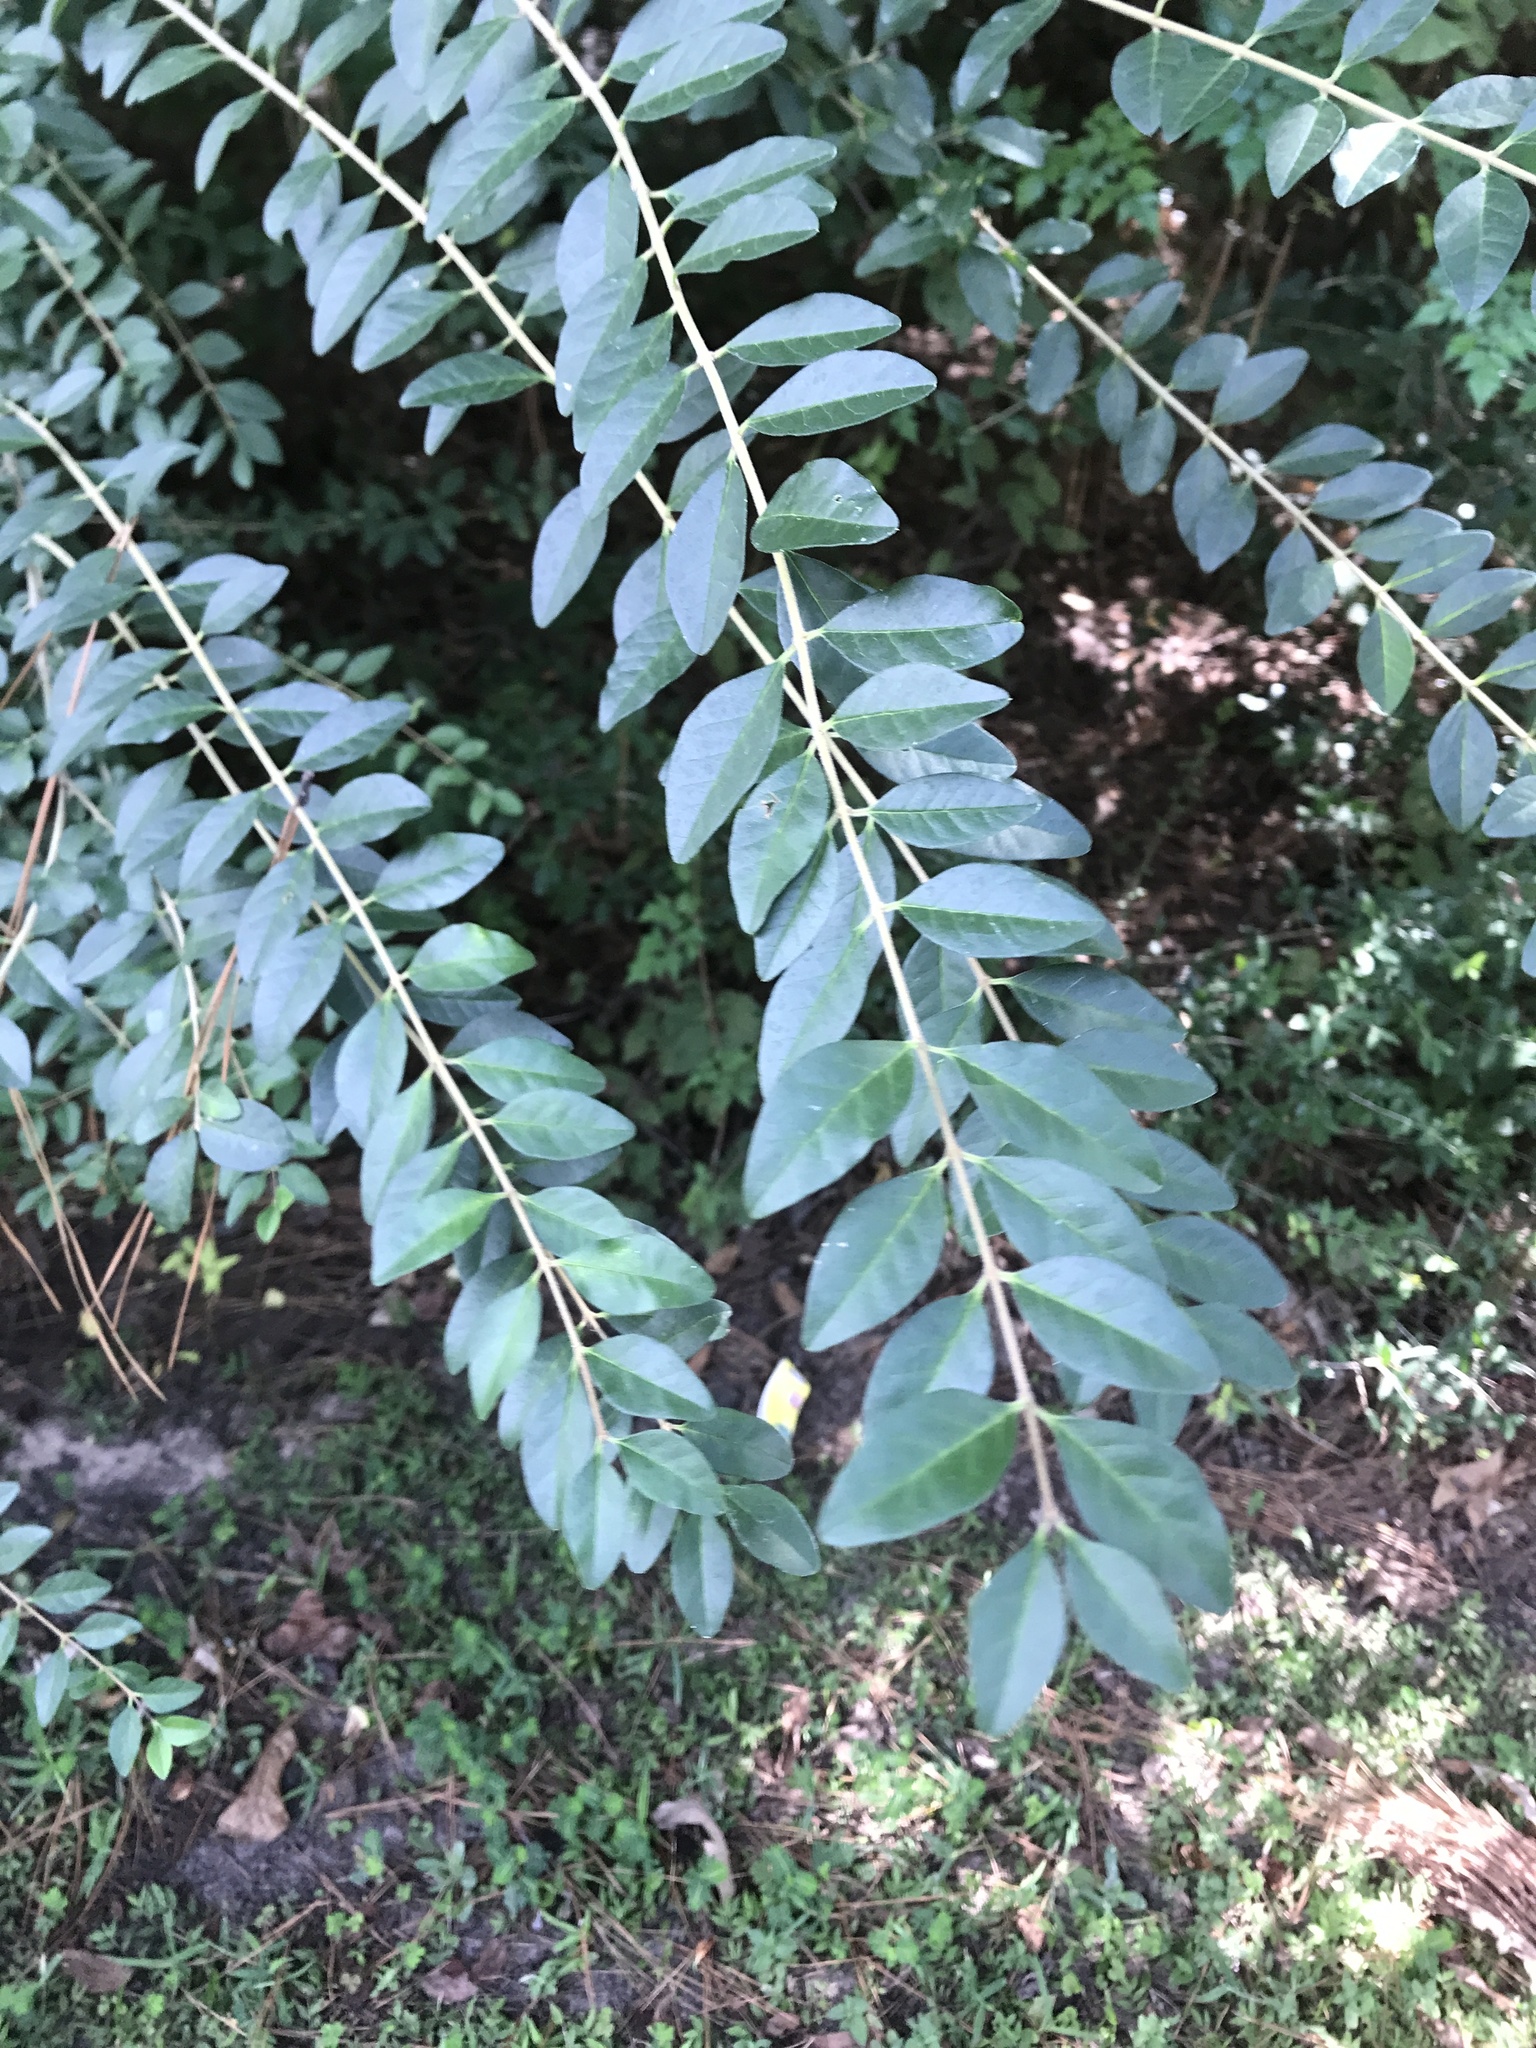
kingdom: Plantae
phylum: Tracheophyta
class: Magnoliopsida
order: Lamiales
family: Oleaceae
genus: Ligustrum
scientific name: Ligustrum sinense
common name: Chinese privet
